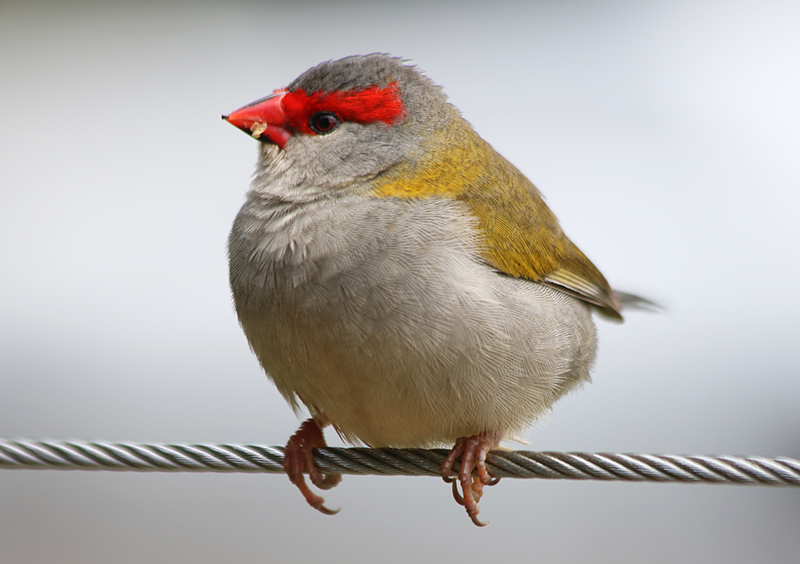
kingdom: Animalia
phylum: Chordata
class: Aves
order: Passeriformes
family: Estrildidae
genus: Neochmia
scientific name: Neochmia temporalis
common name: Red-browed finch
